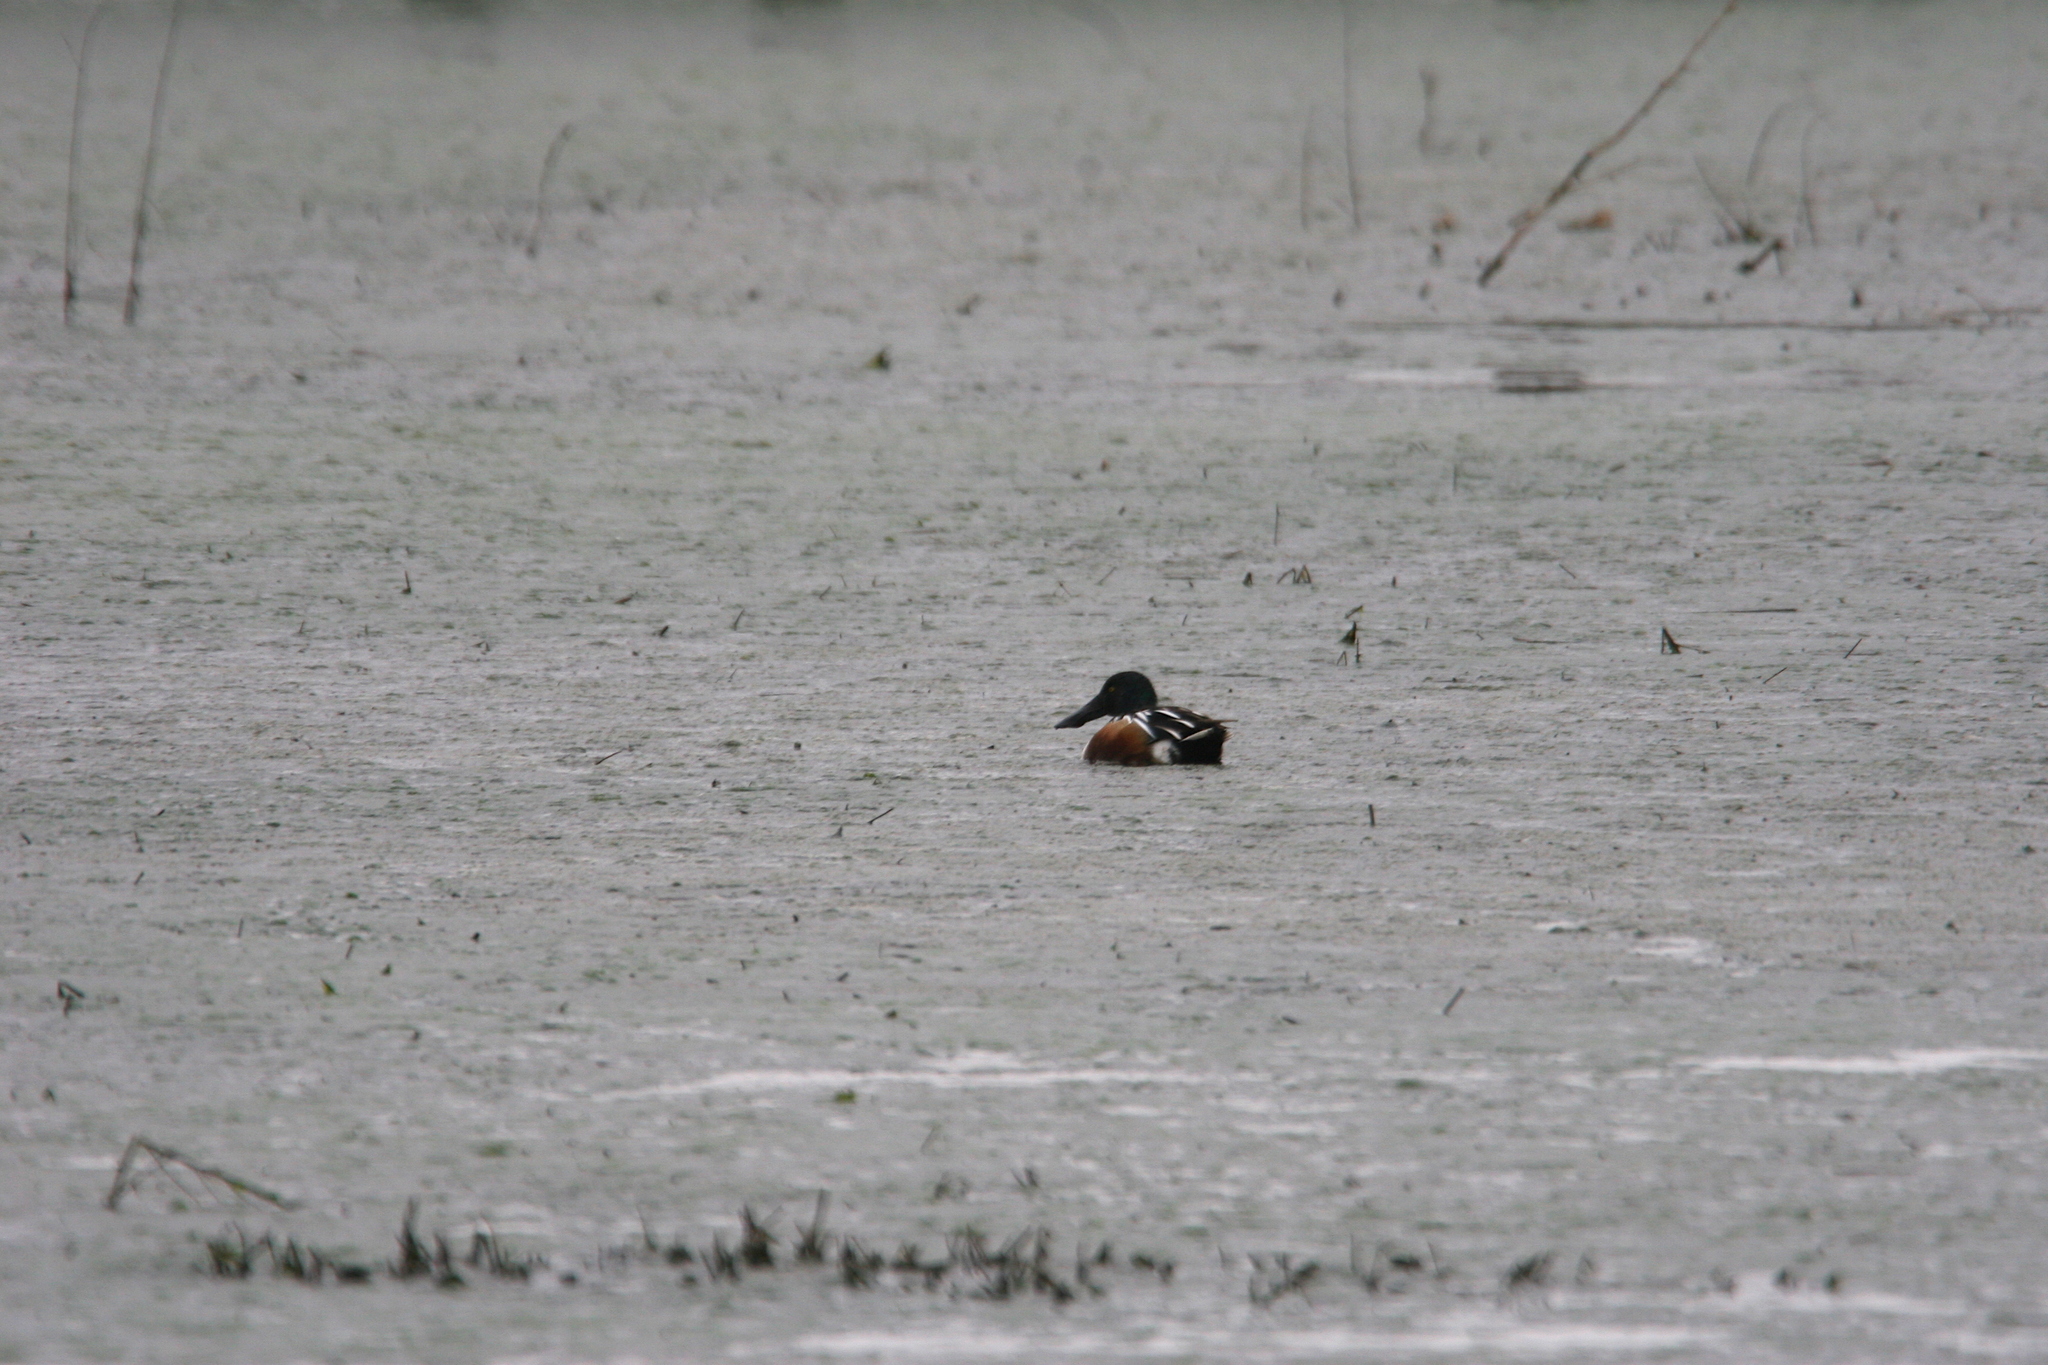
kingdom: Animalia
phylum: Chordata
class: Aves
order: Anseriformes
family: Anatidae
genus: Spatula
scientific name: Spatula clypeata
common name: Northern shoveler
